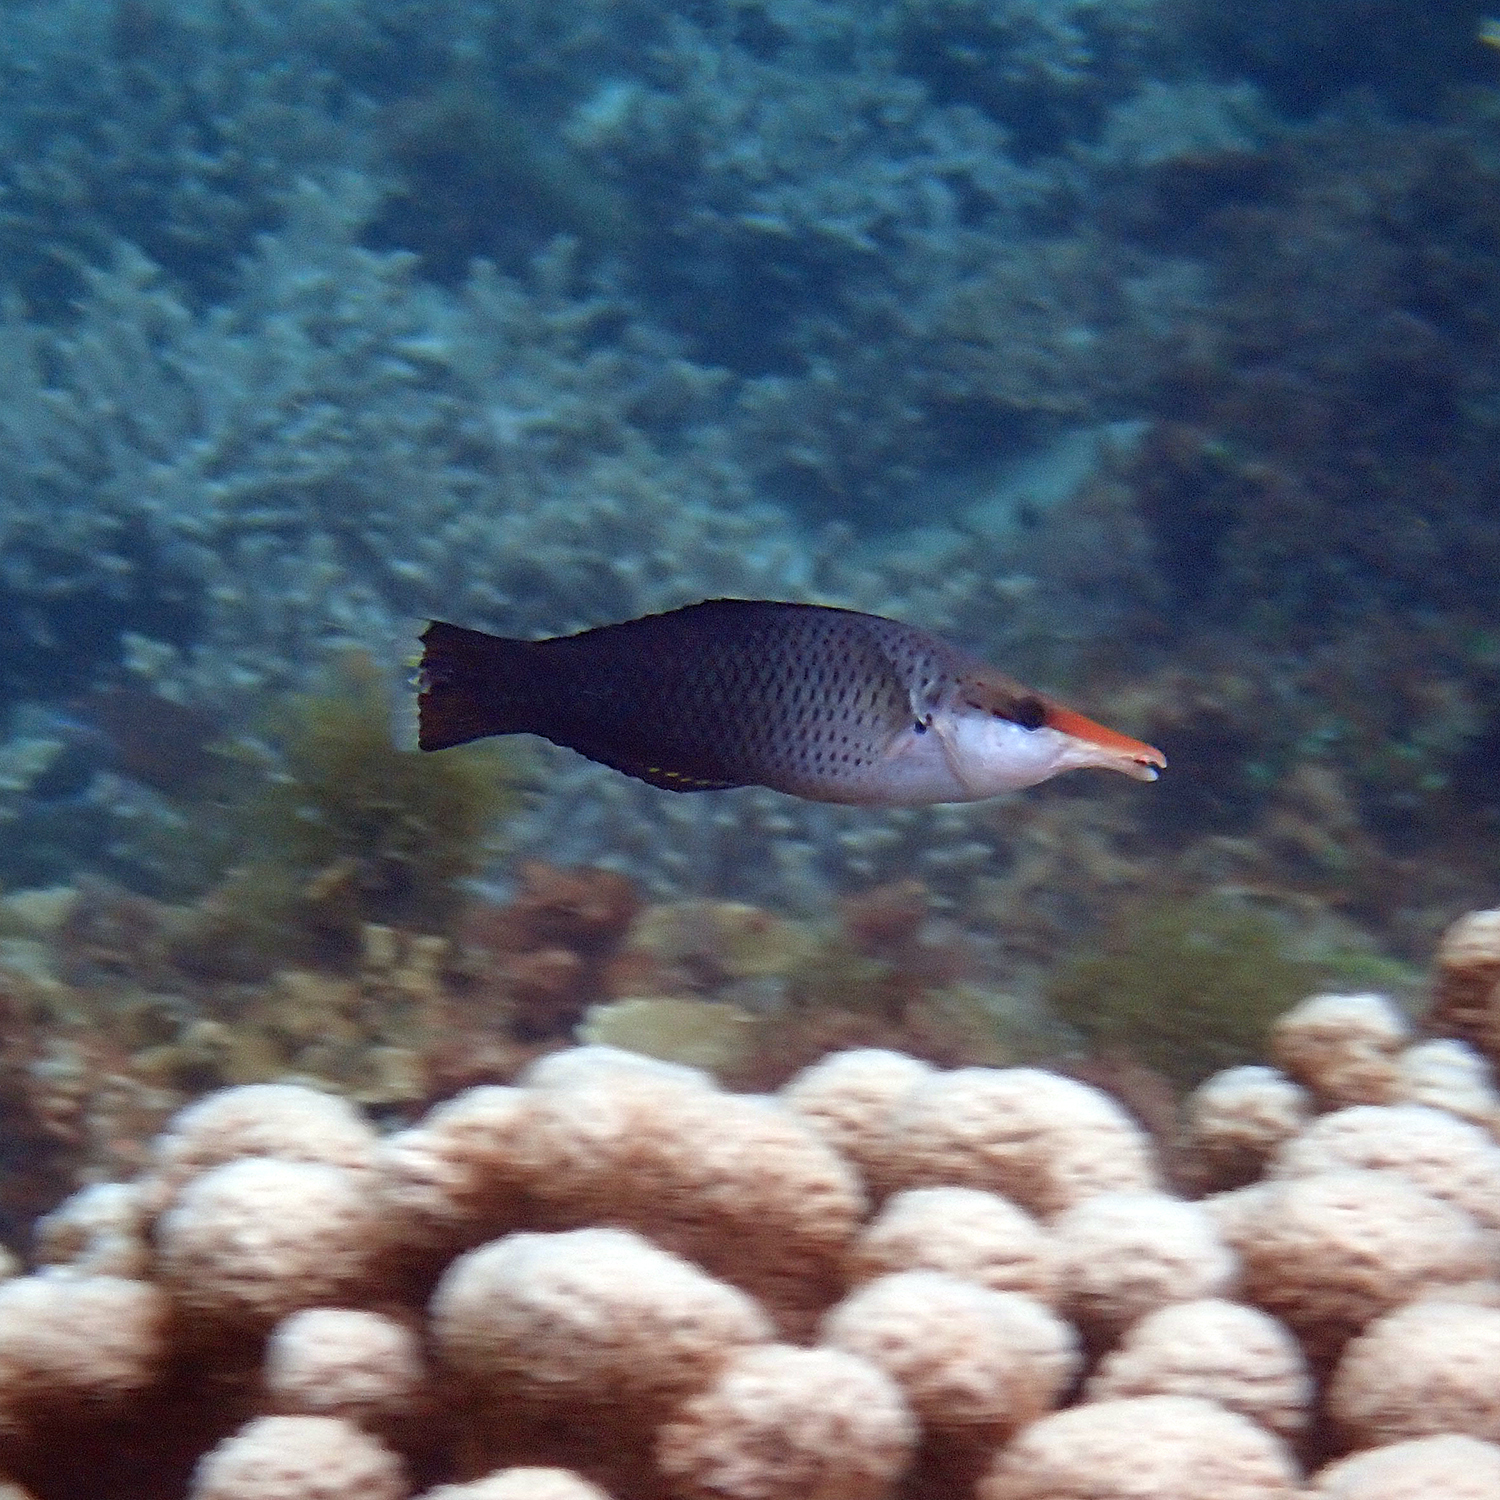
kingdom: Animalia
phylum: Chordata
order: Perciformes
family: Labridae
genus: Gomphosus
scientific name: Gomphosus varius
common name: Bird wrasse
